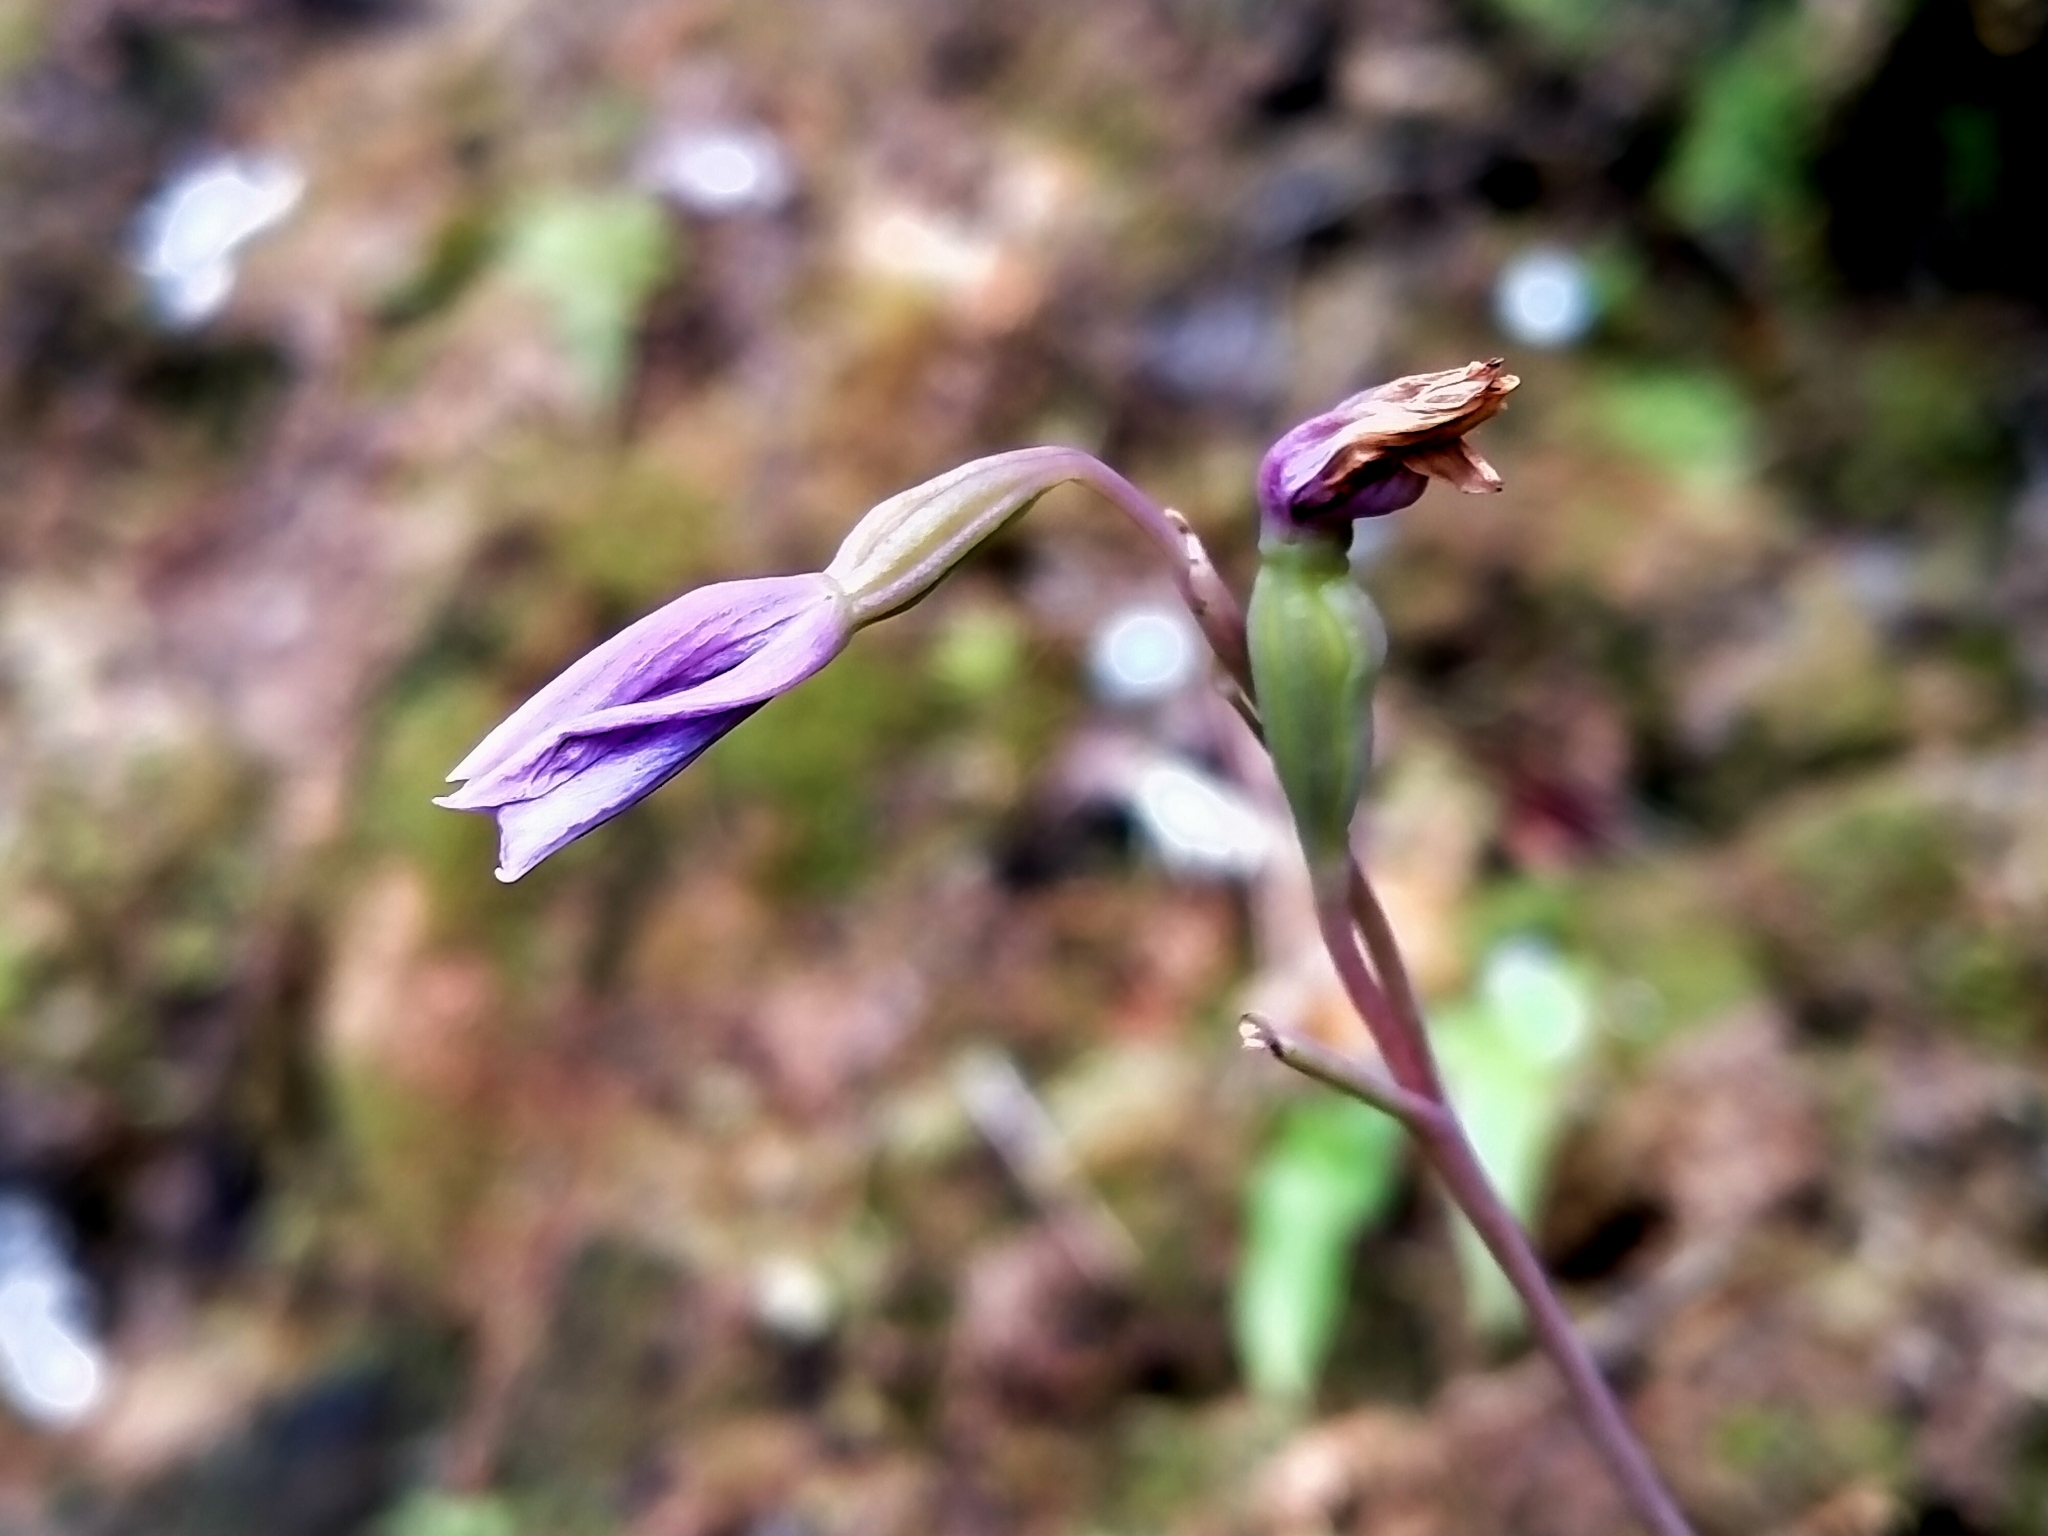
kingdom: Plantae
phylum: Tracheophyta
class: Liliopsida
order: Asparagales
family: Orchidaceae
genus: Thelymitra
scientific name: Thelymitra cyanea
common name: Blue sun-orchid
